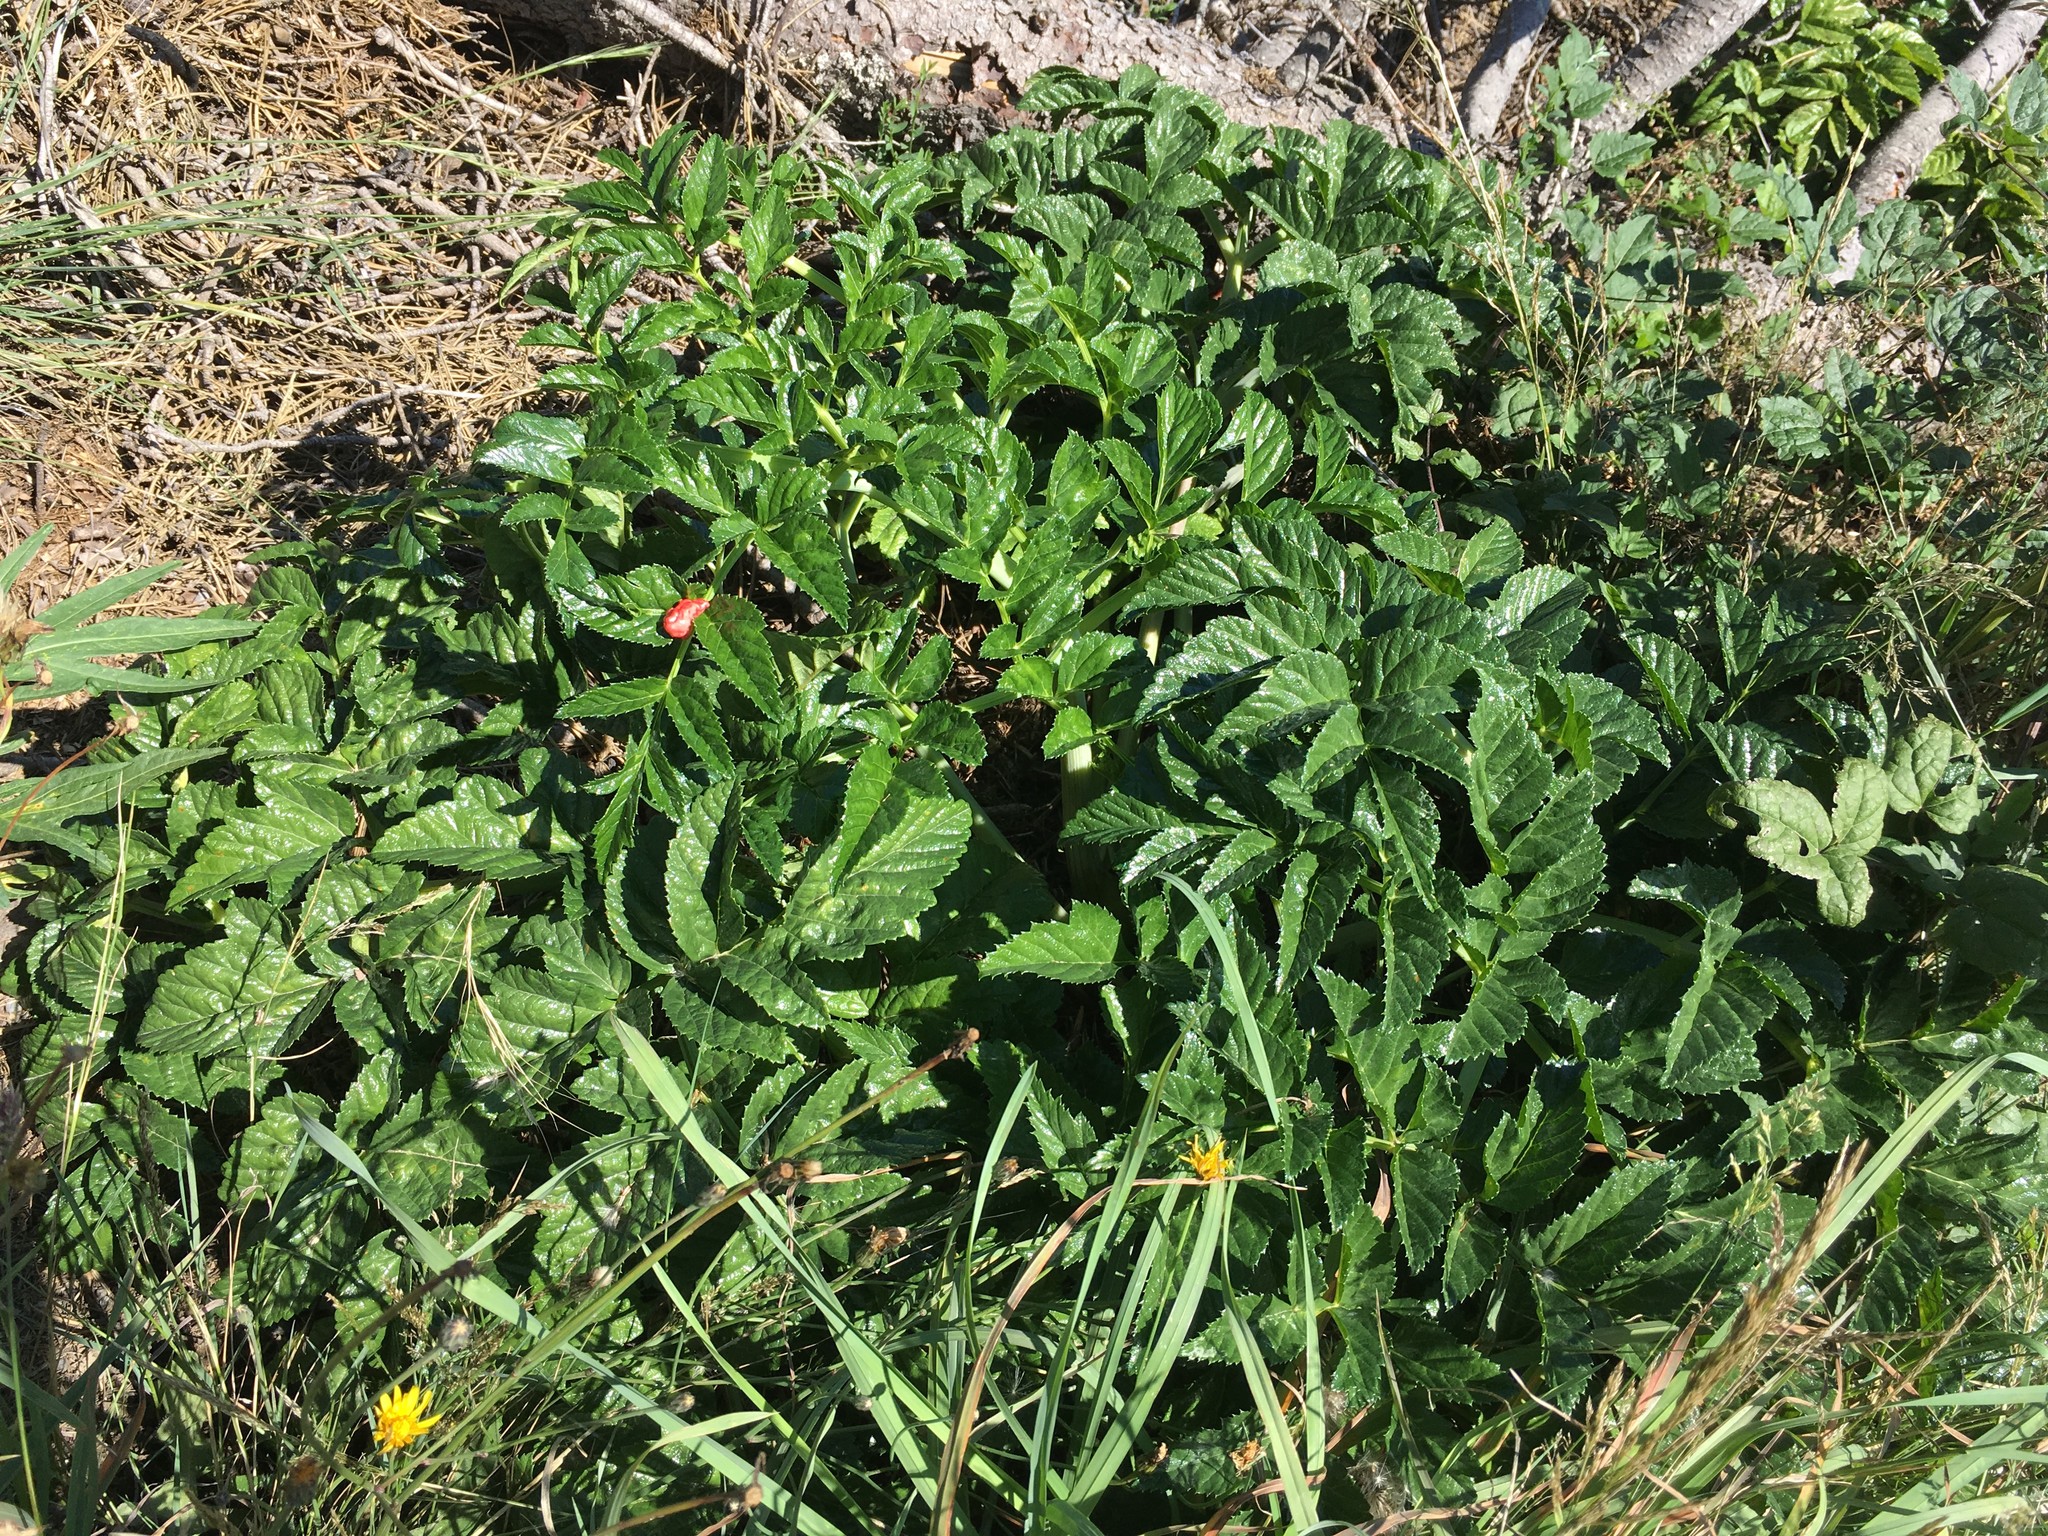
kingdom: Plantae
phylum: Tracheophyta
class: Magnoliopsida
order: Apiales
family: Apiaceae
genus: Angelica
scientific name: Angelica pachycarpa
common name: Portuguese angelica
